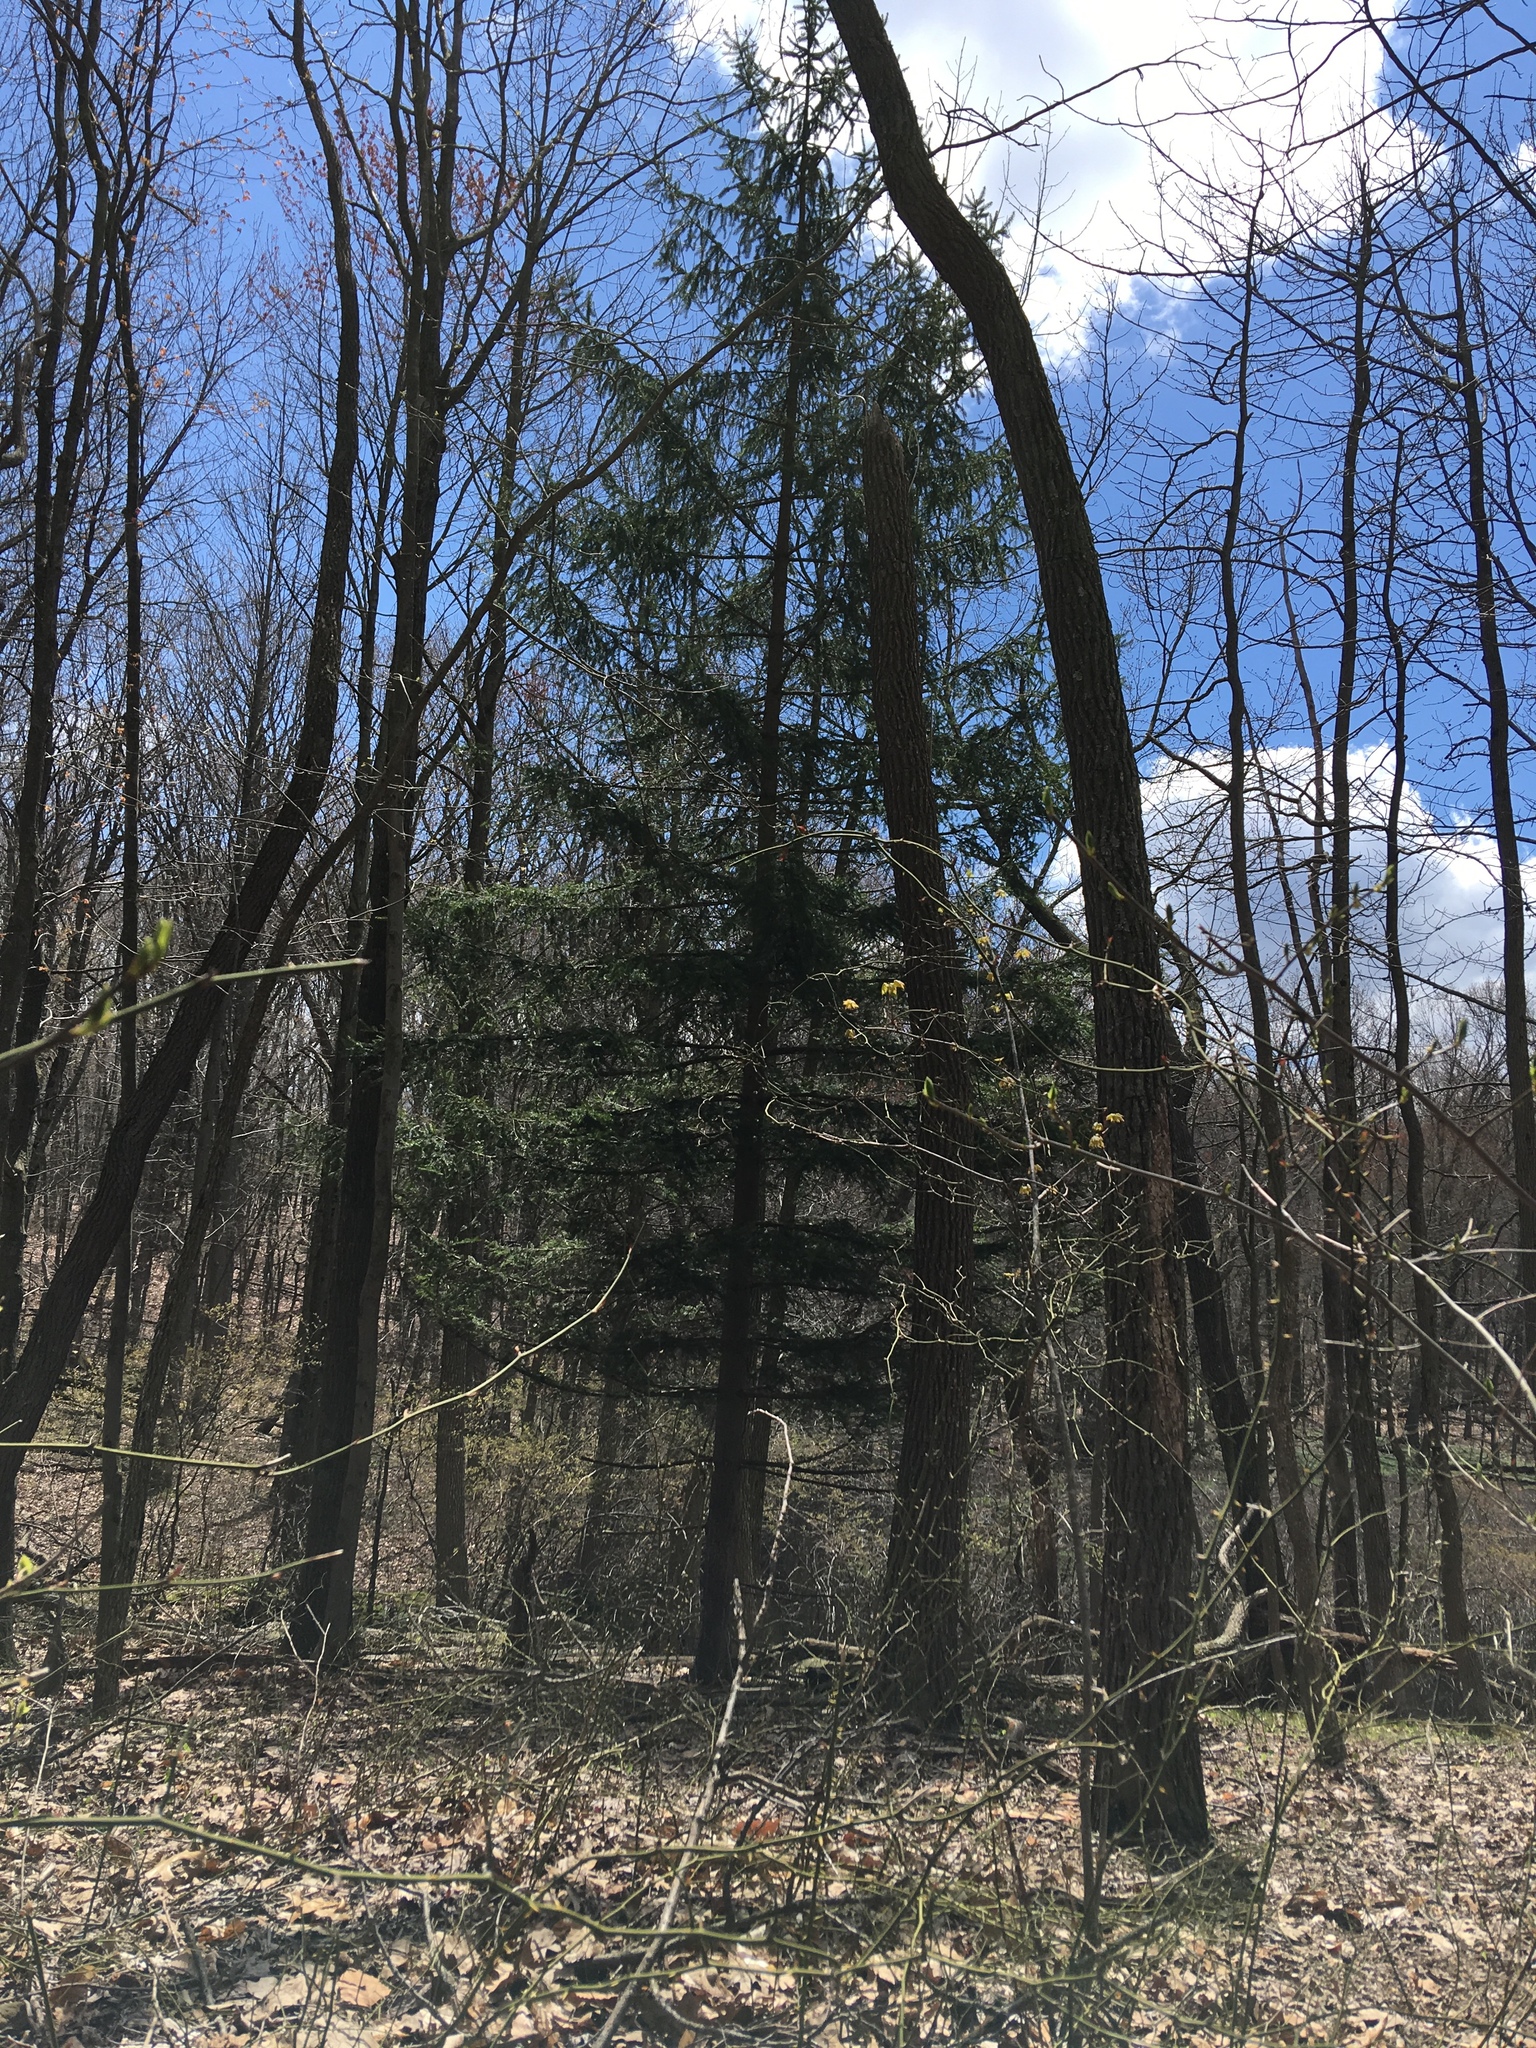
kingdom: Plantae
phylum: Tracheophyta
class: Pinopsida
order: Pinales
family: Pinaceae
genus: Picea
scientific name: Picea abies
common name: Norway spruce
